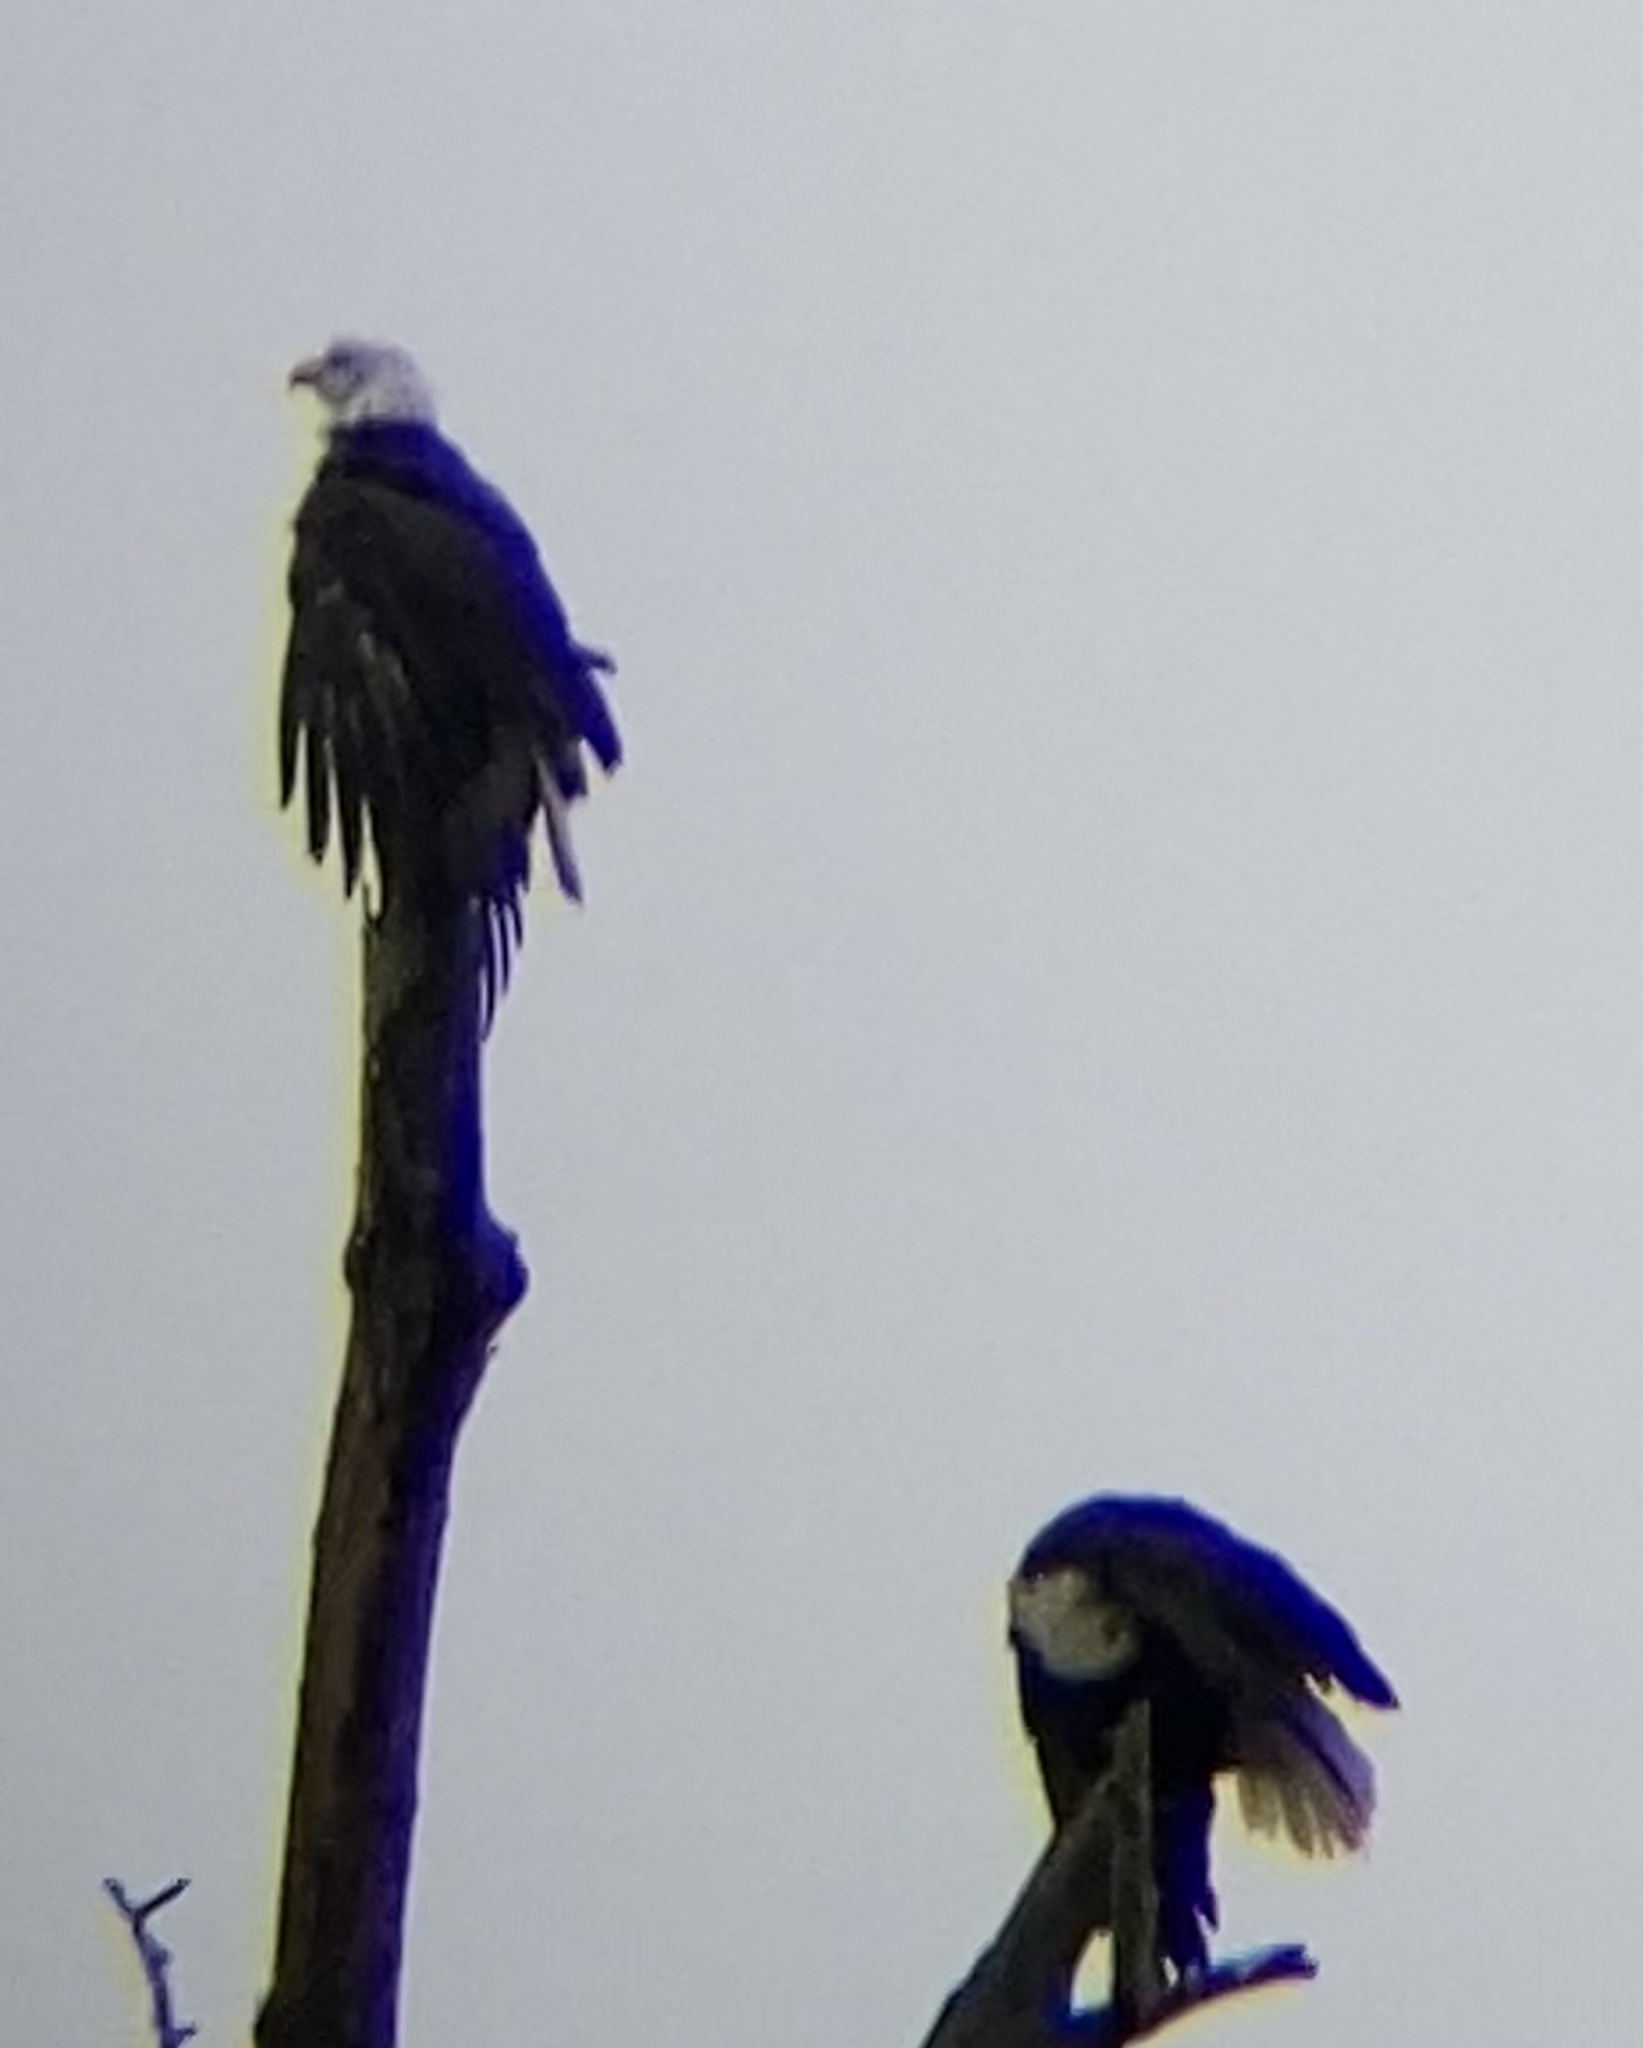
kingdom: Animalia
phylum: Chordata
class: Aves
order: Accipitriformes
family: Accipitridae
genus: Haliaeetus
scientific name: Haliaeetus leucocephalus
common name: Bald eagle
